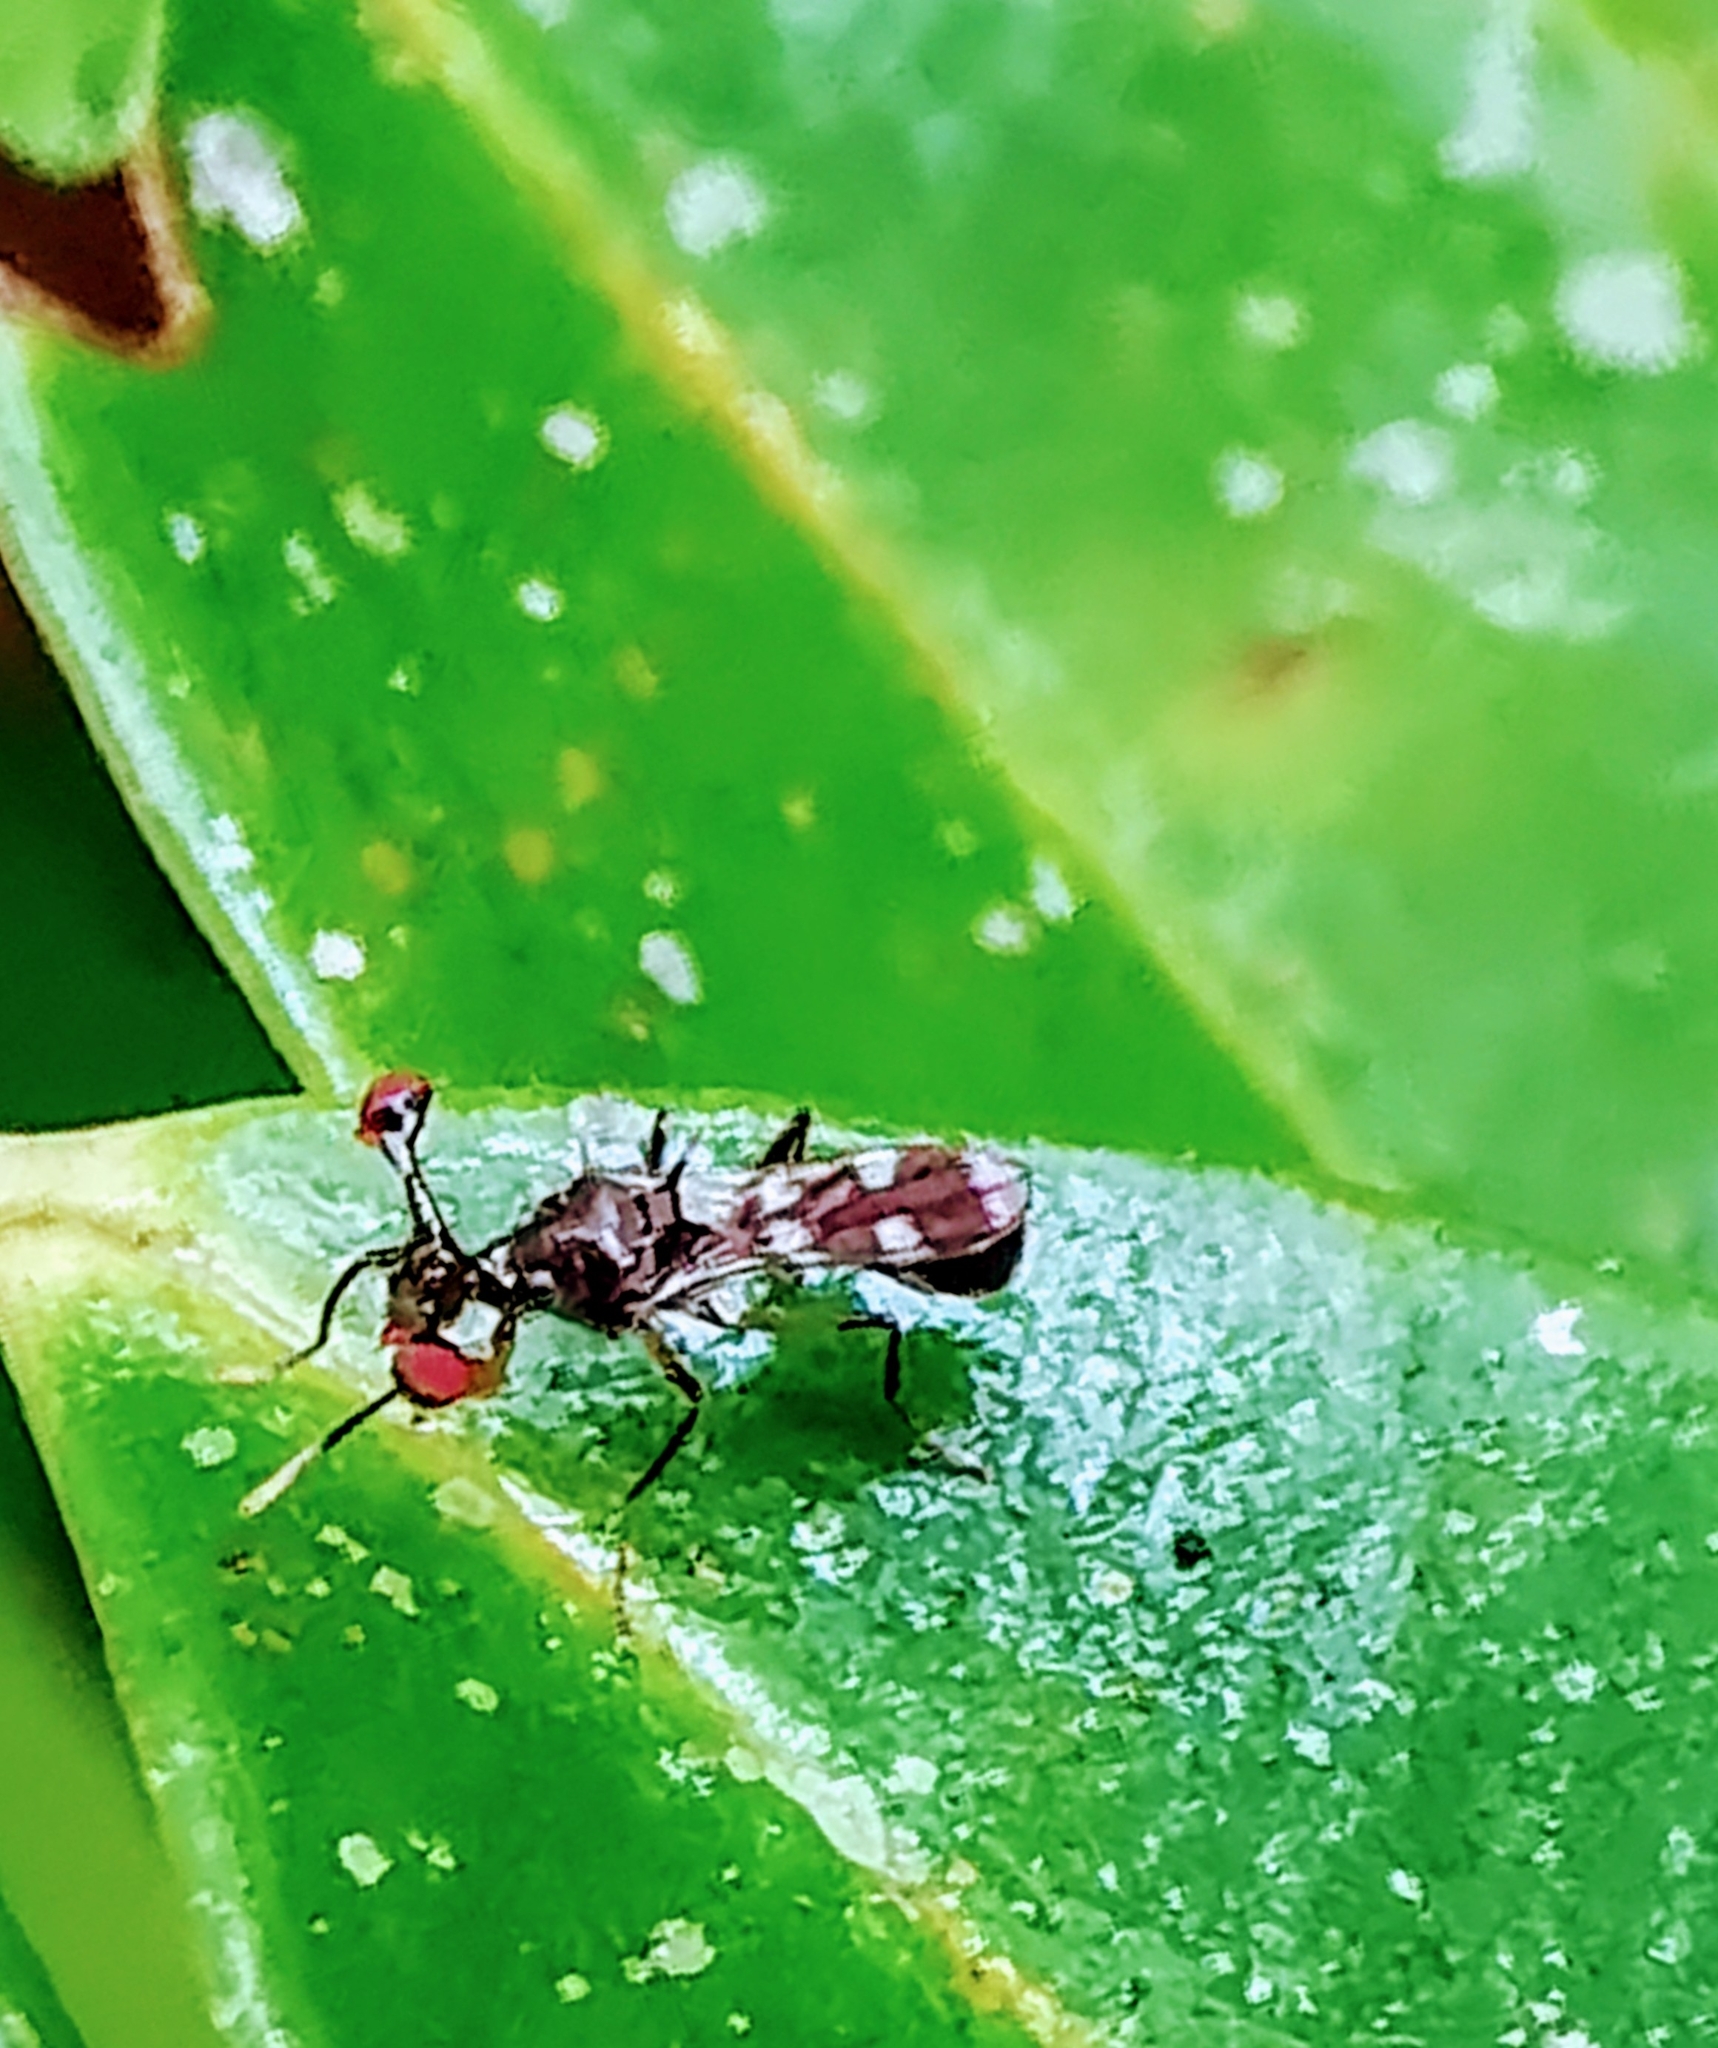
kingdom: Animalia
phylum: Arthropoda
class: Insecta
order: Diptera
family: Diopsidae
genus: Megalabops
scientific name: Megalabops
